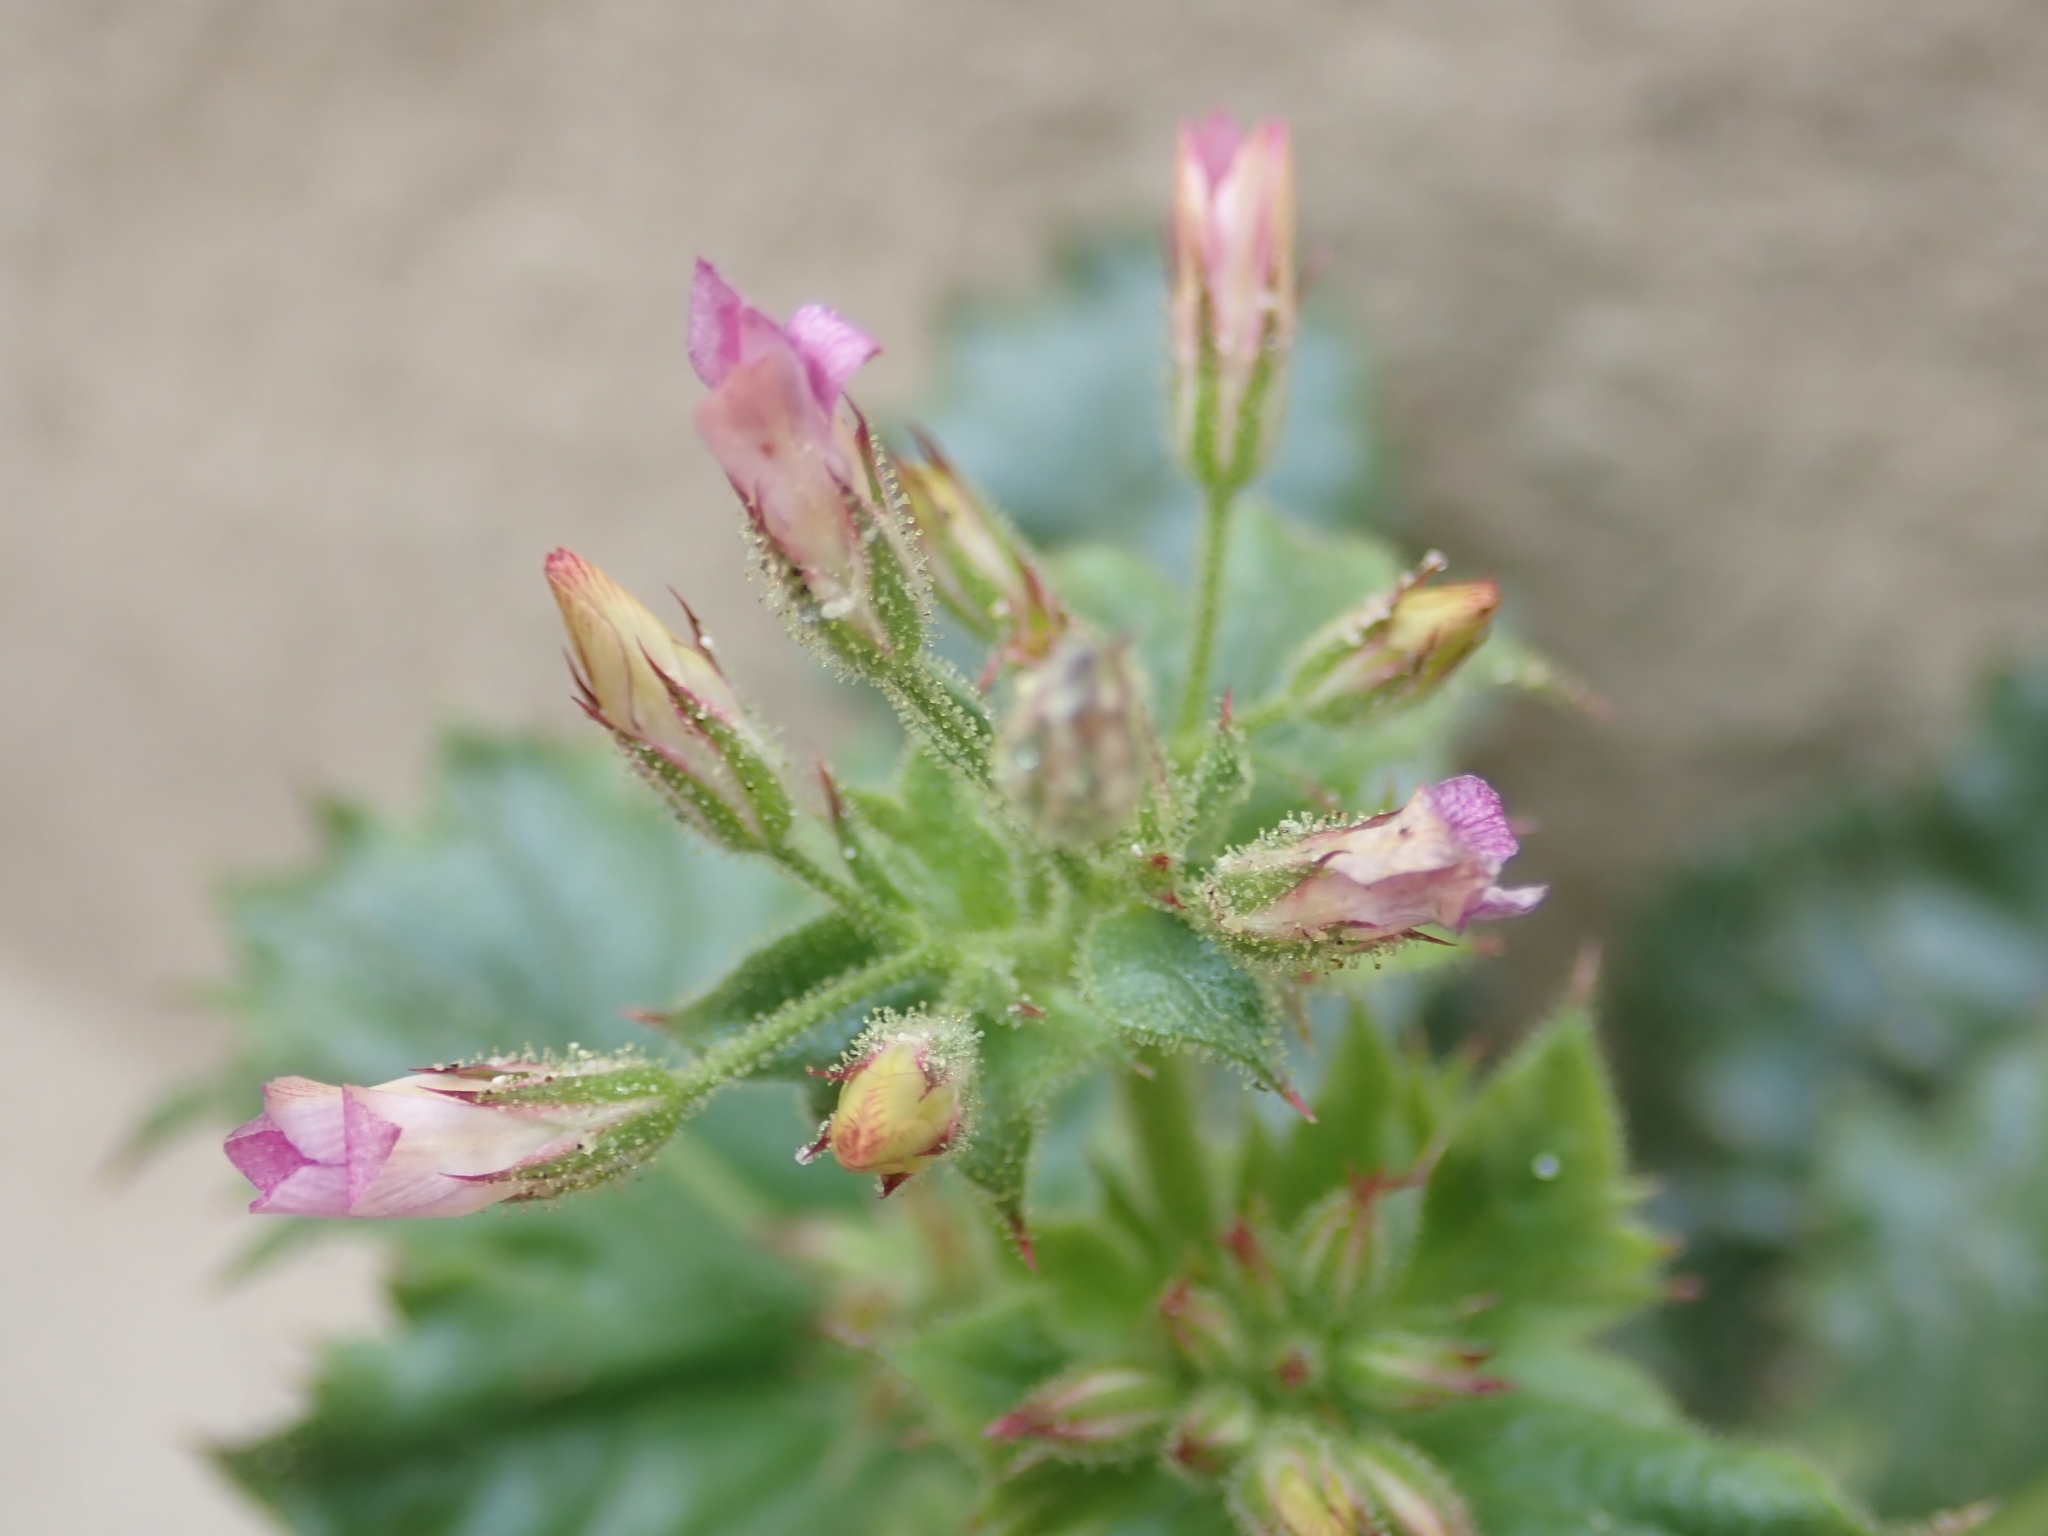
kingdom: Plantae
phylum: Tracheophyta
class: Magnoliopsida
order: Ericales
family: Polemoniaceae
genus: Aliciella
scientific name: Aliciella latifolia
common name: Broad-leaf gilia
